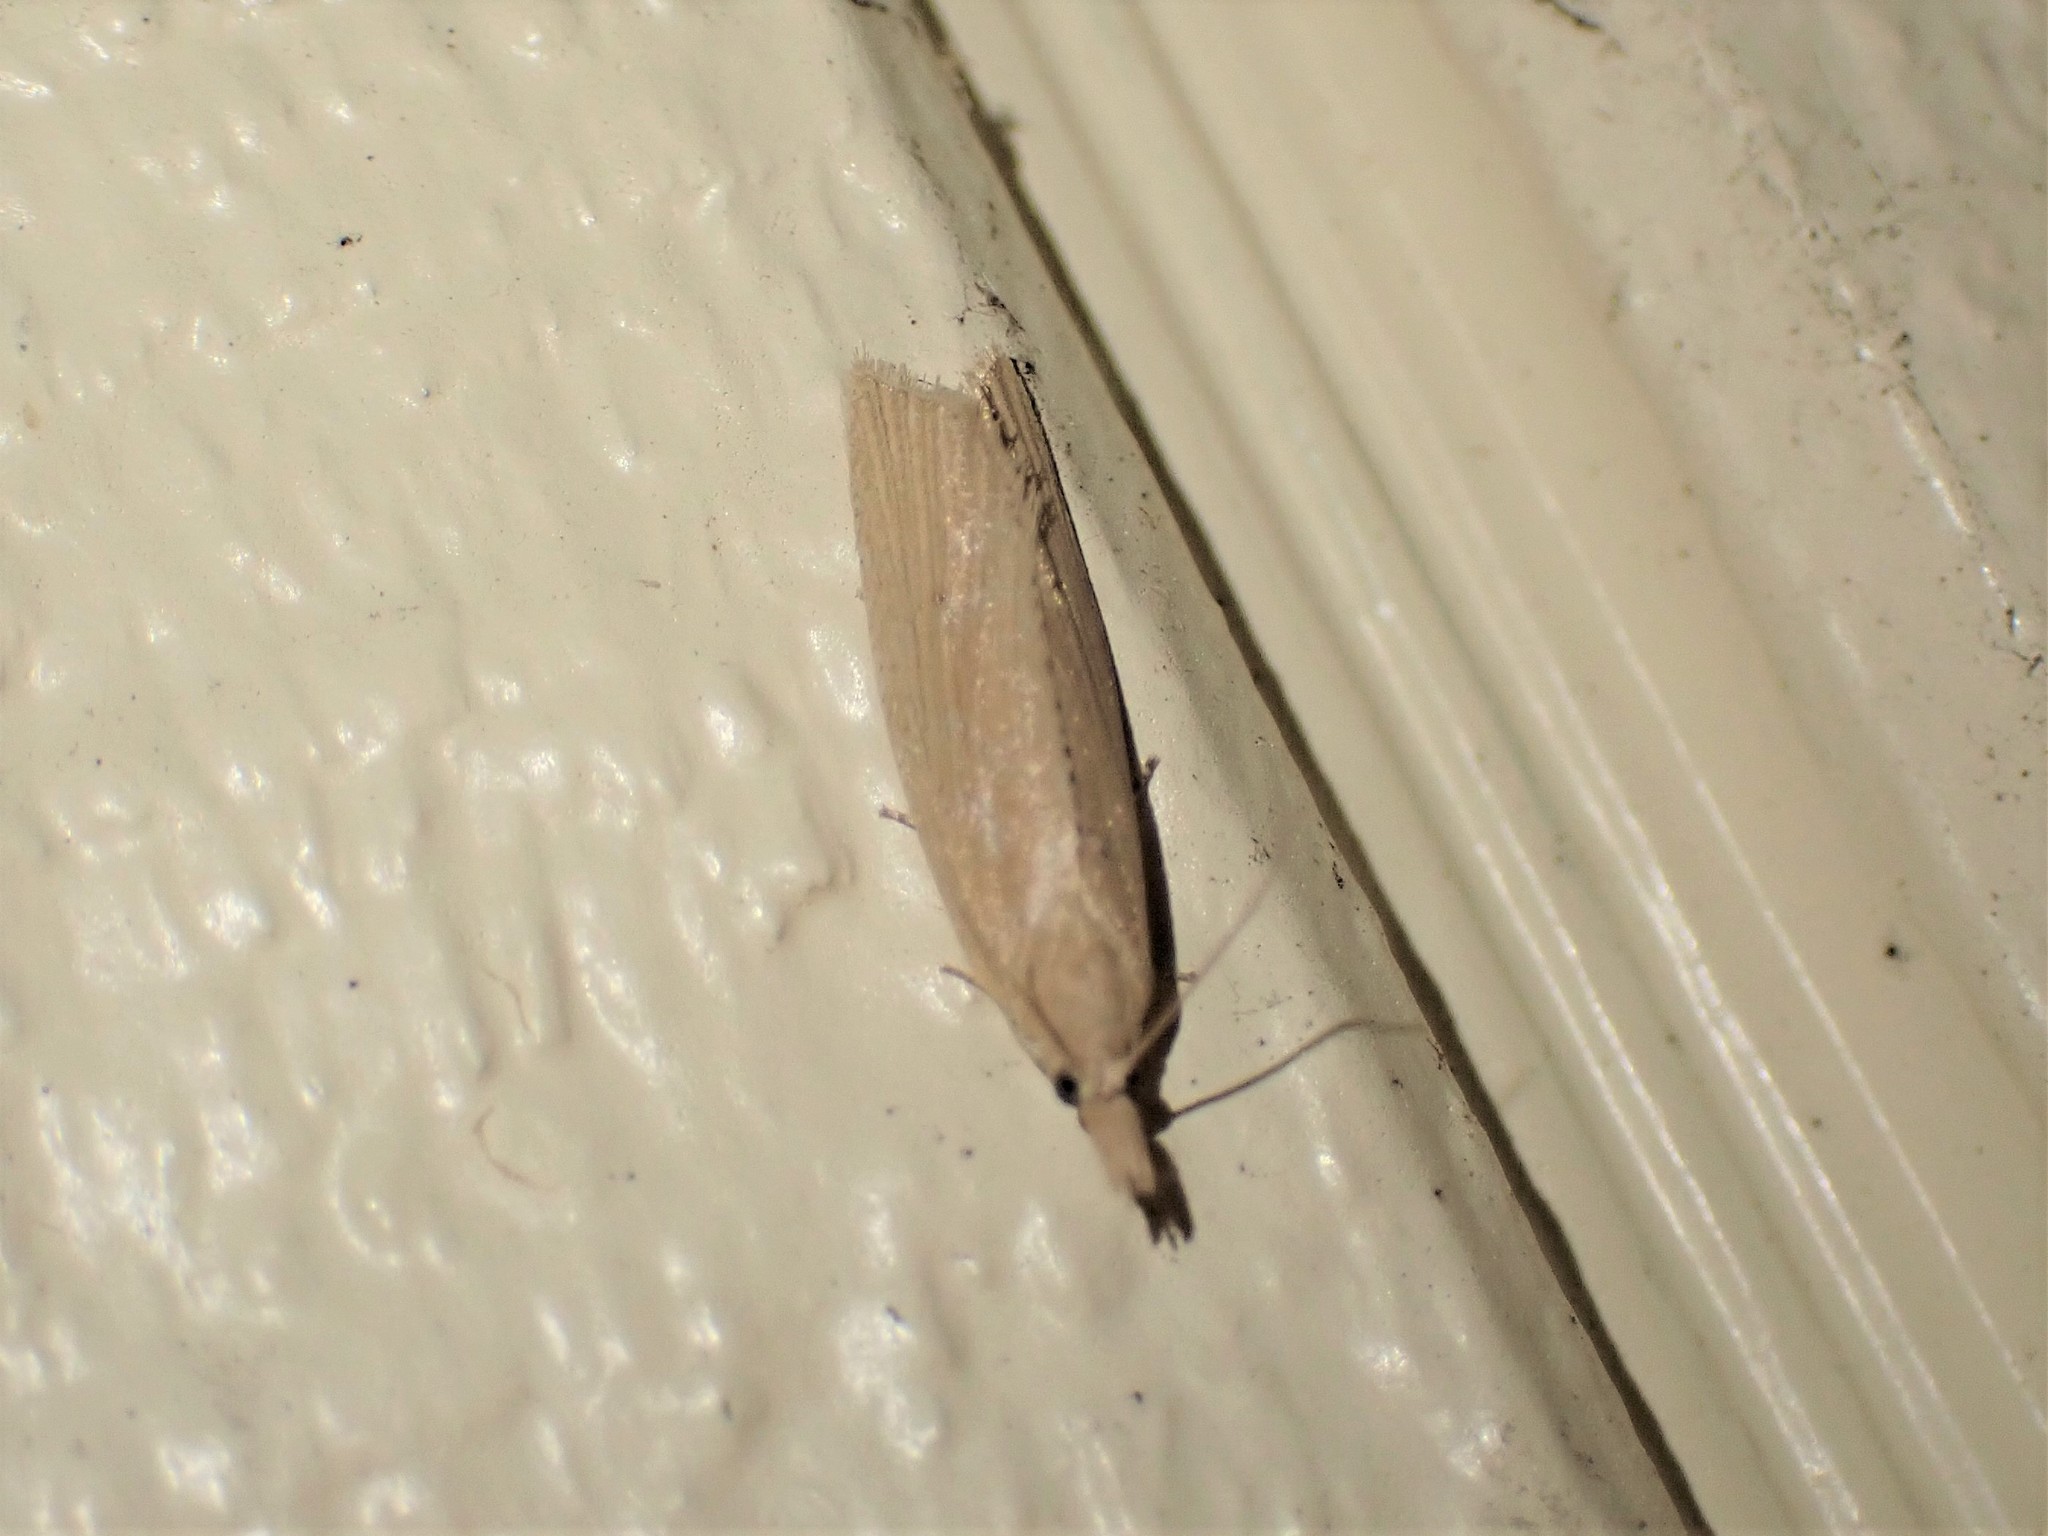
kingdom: Animalia
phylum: Arthropoda
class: Insecta
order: Lepidoptera
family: Tortricidae
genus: Bactra
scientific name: Bactra noteraula
